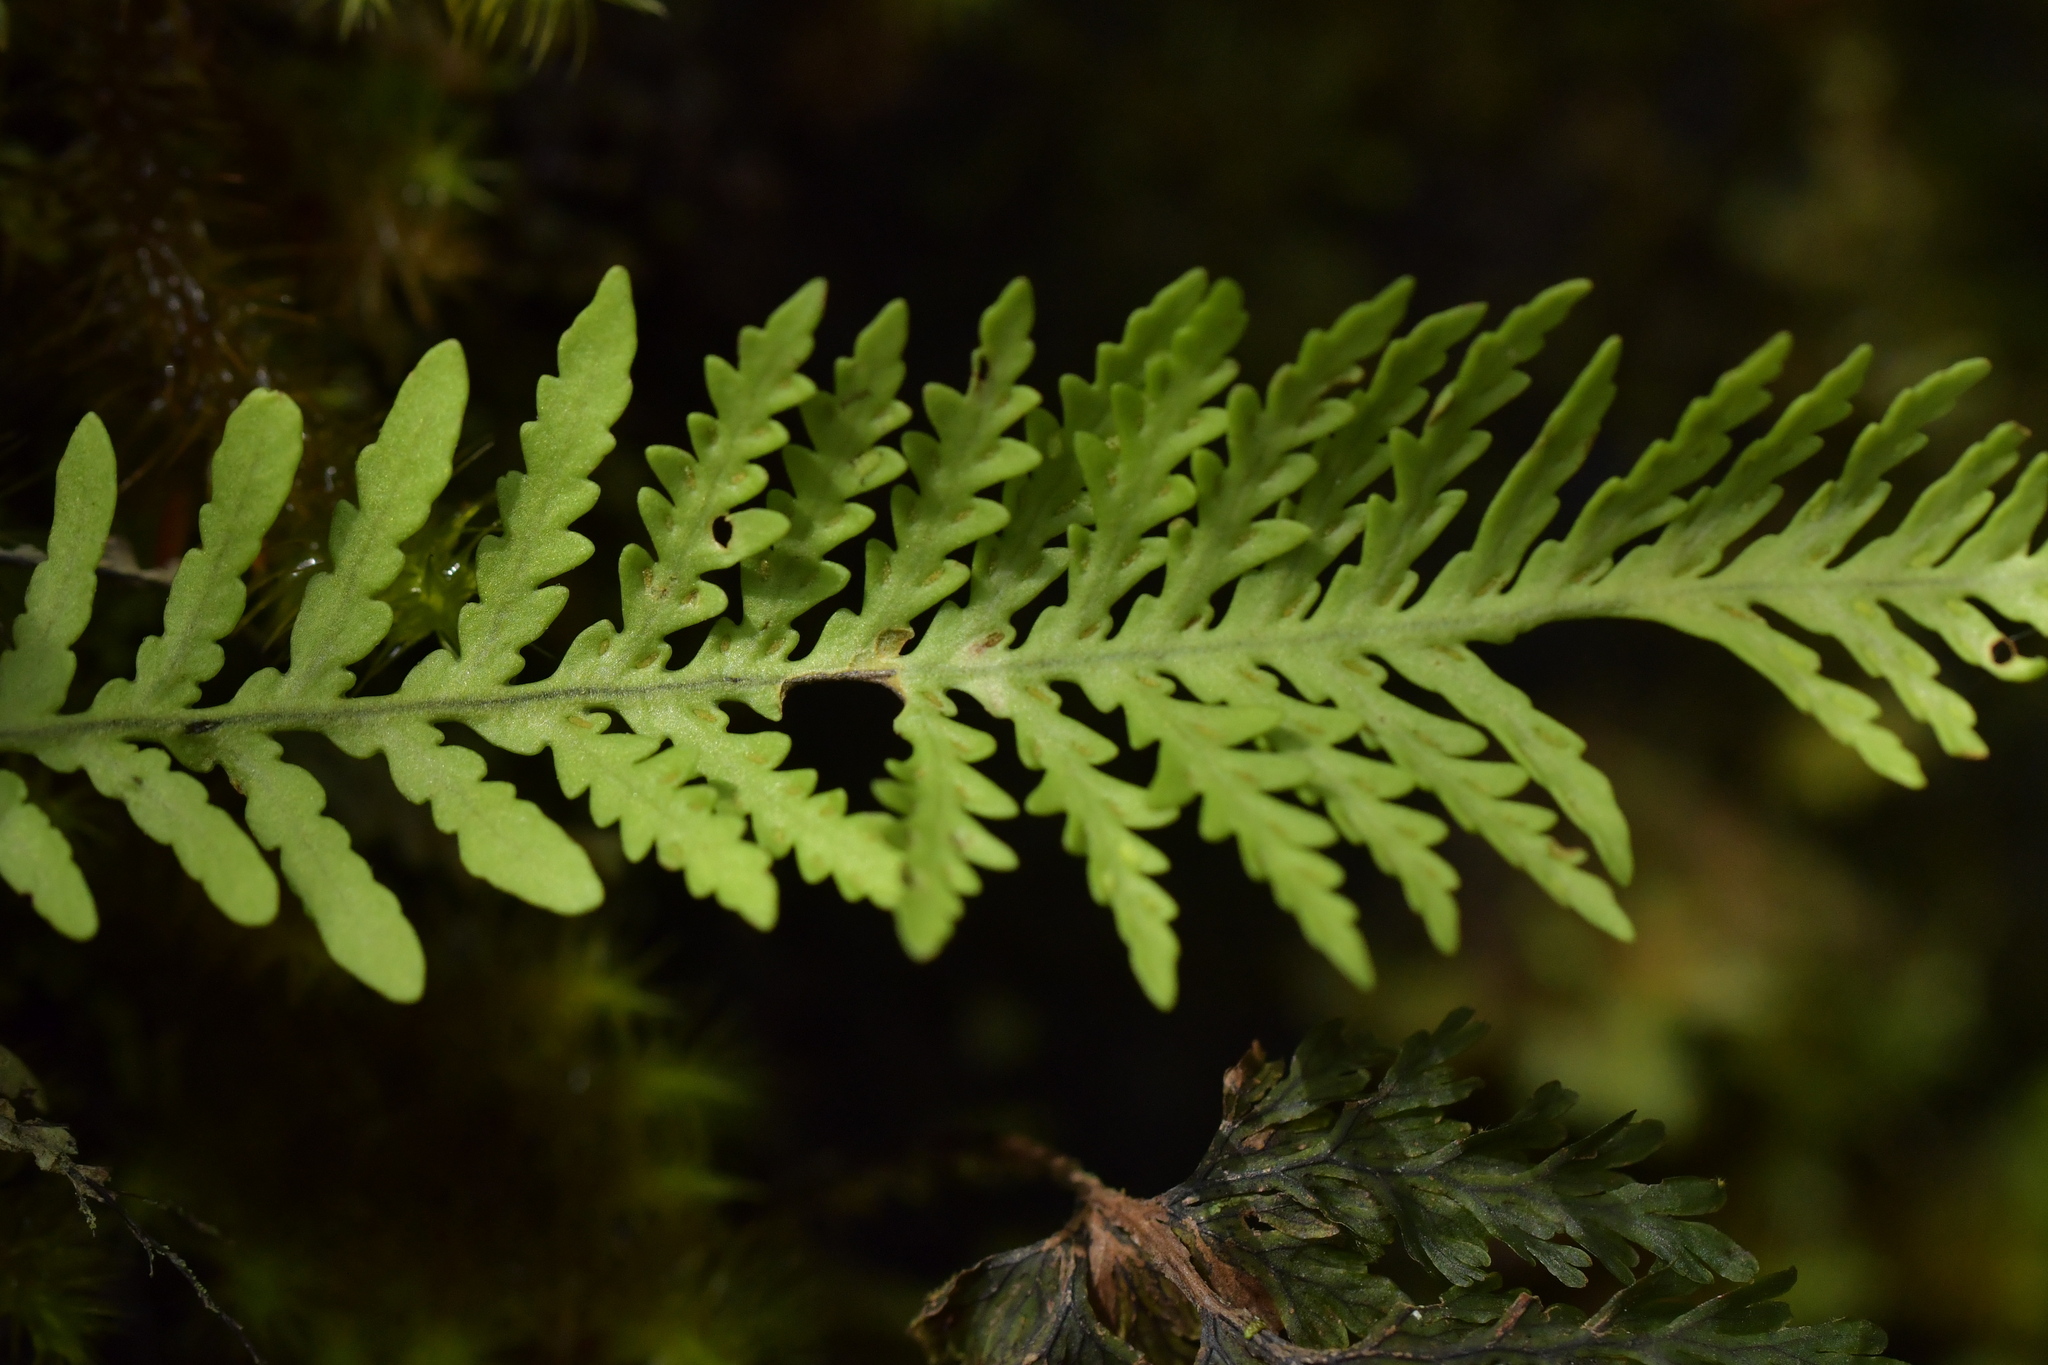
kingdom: Plantae
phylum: Tracheophyta
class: Polypodiopsida
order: Polypodiales
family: Polypodiaceae
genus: Notogrammitis
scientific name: Notogrammitis heterophylla
